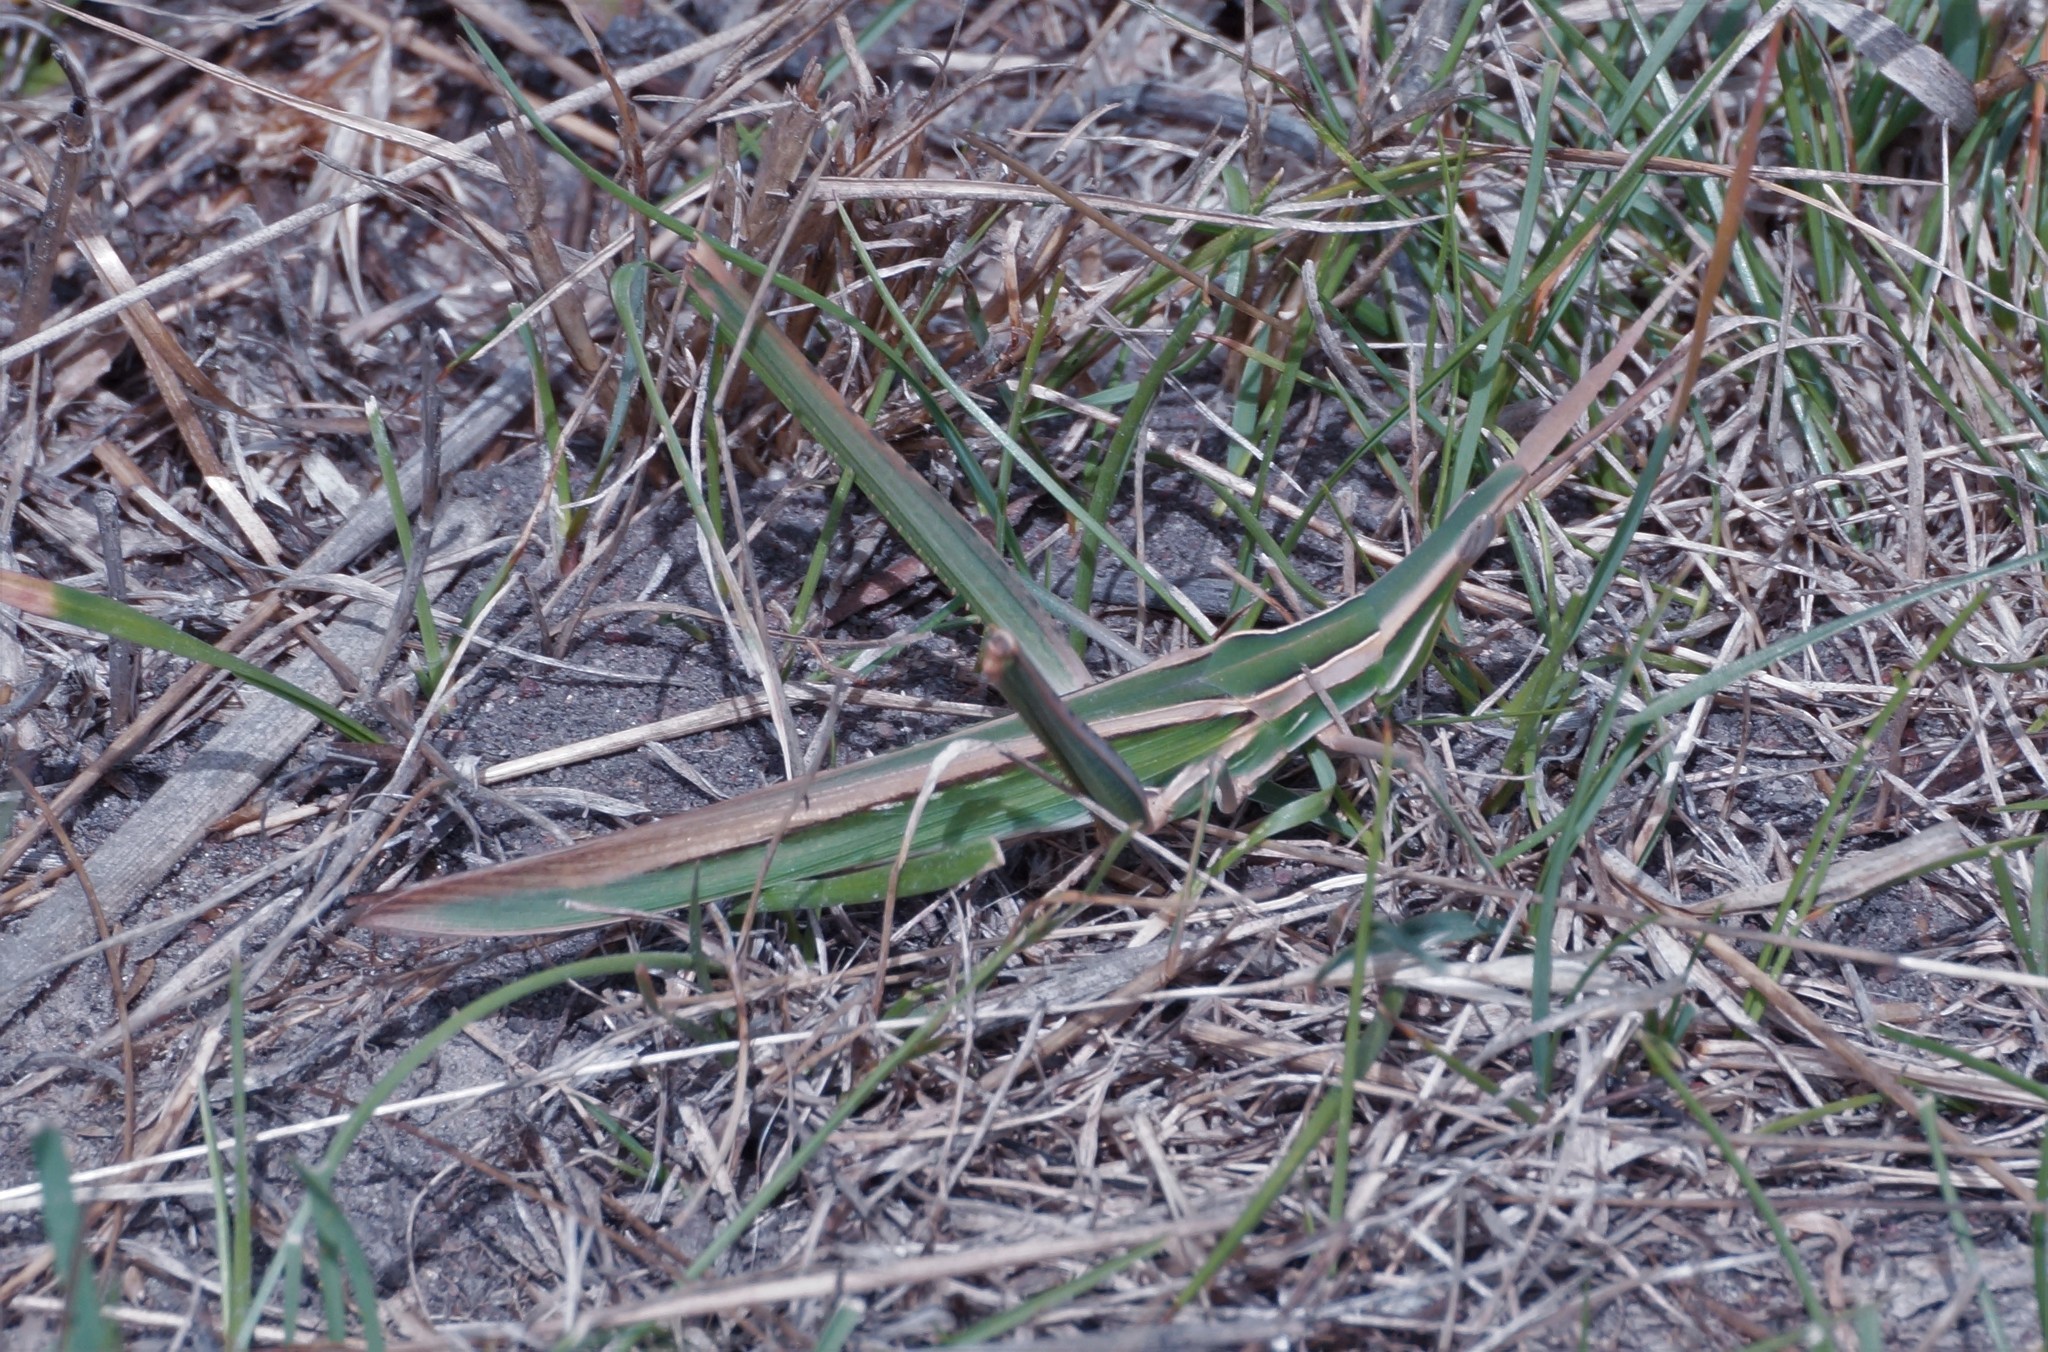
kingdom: Animalia
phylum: Arthropoda
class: Insecta
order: Orthoptera
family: Acrididae
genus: Acrida
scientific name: Acrida conica
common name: Giant green slantface
